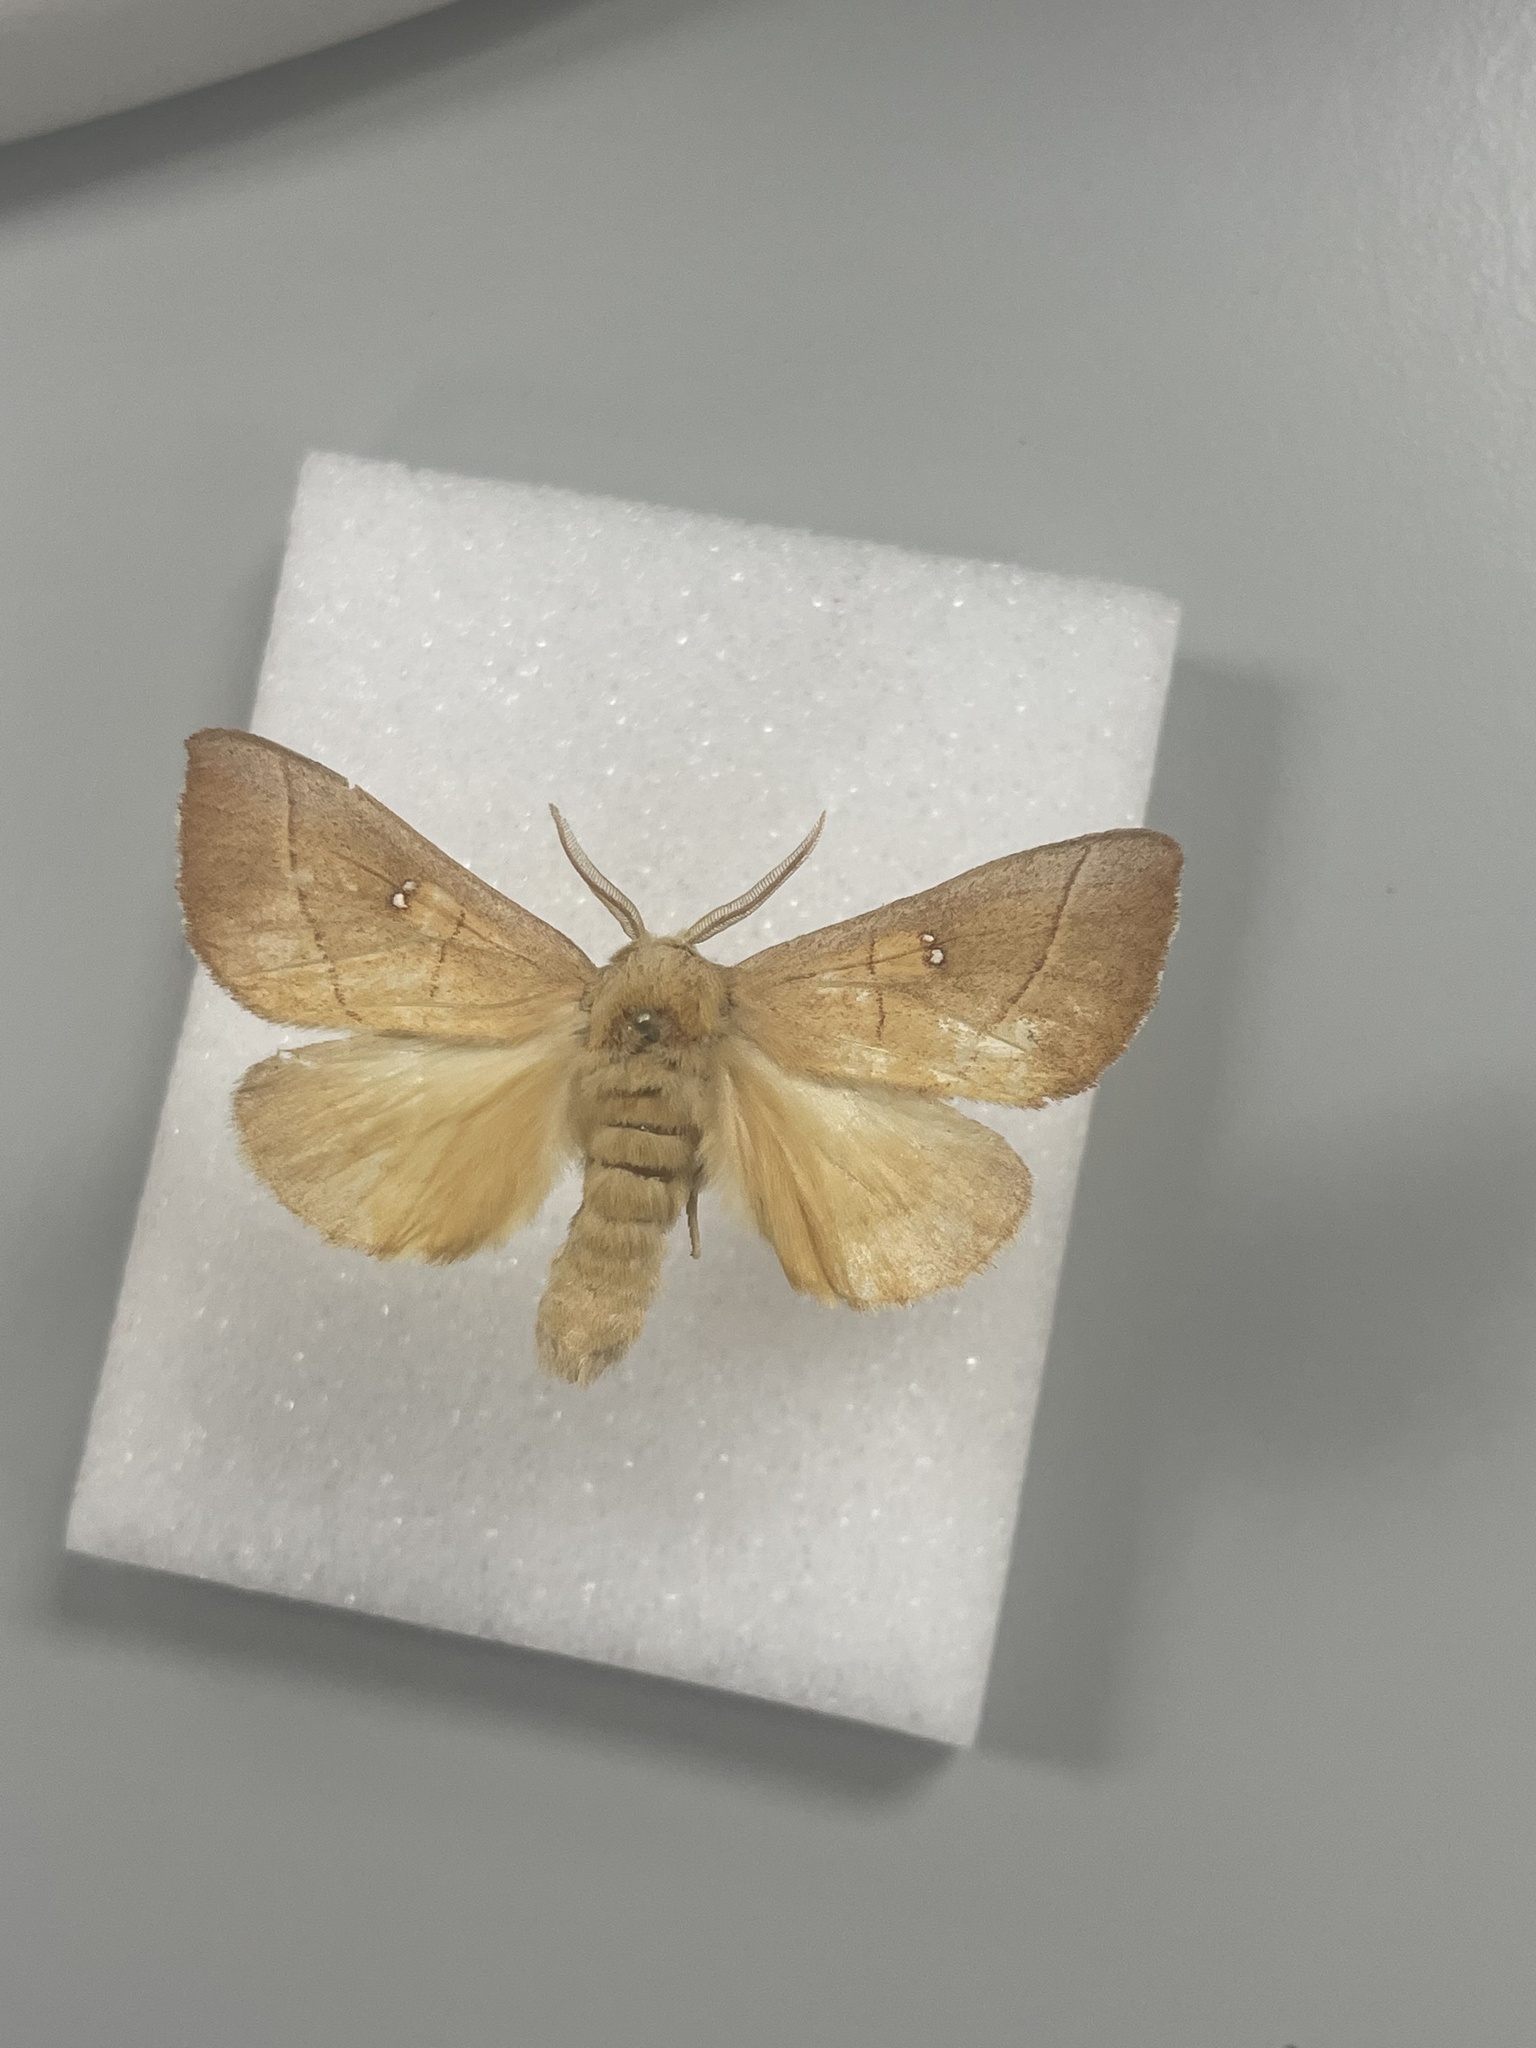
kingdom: Animalia
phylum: Arthropoda
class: Insecta
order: Lepidoptera
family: Notodontidae
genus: Nadata
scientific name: Nadata gibbosa
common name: White-dotted prominent
